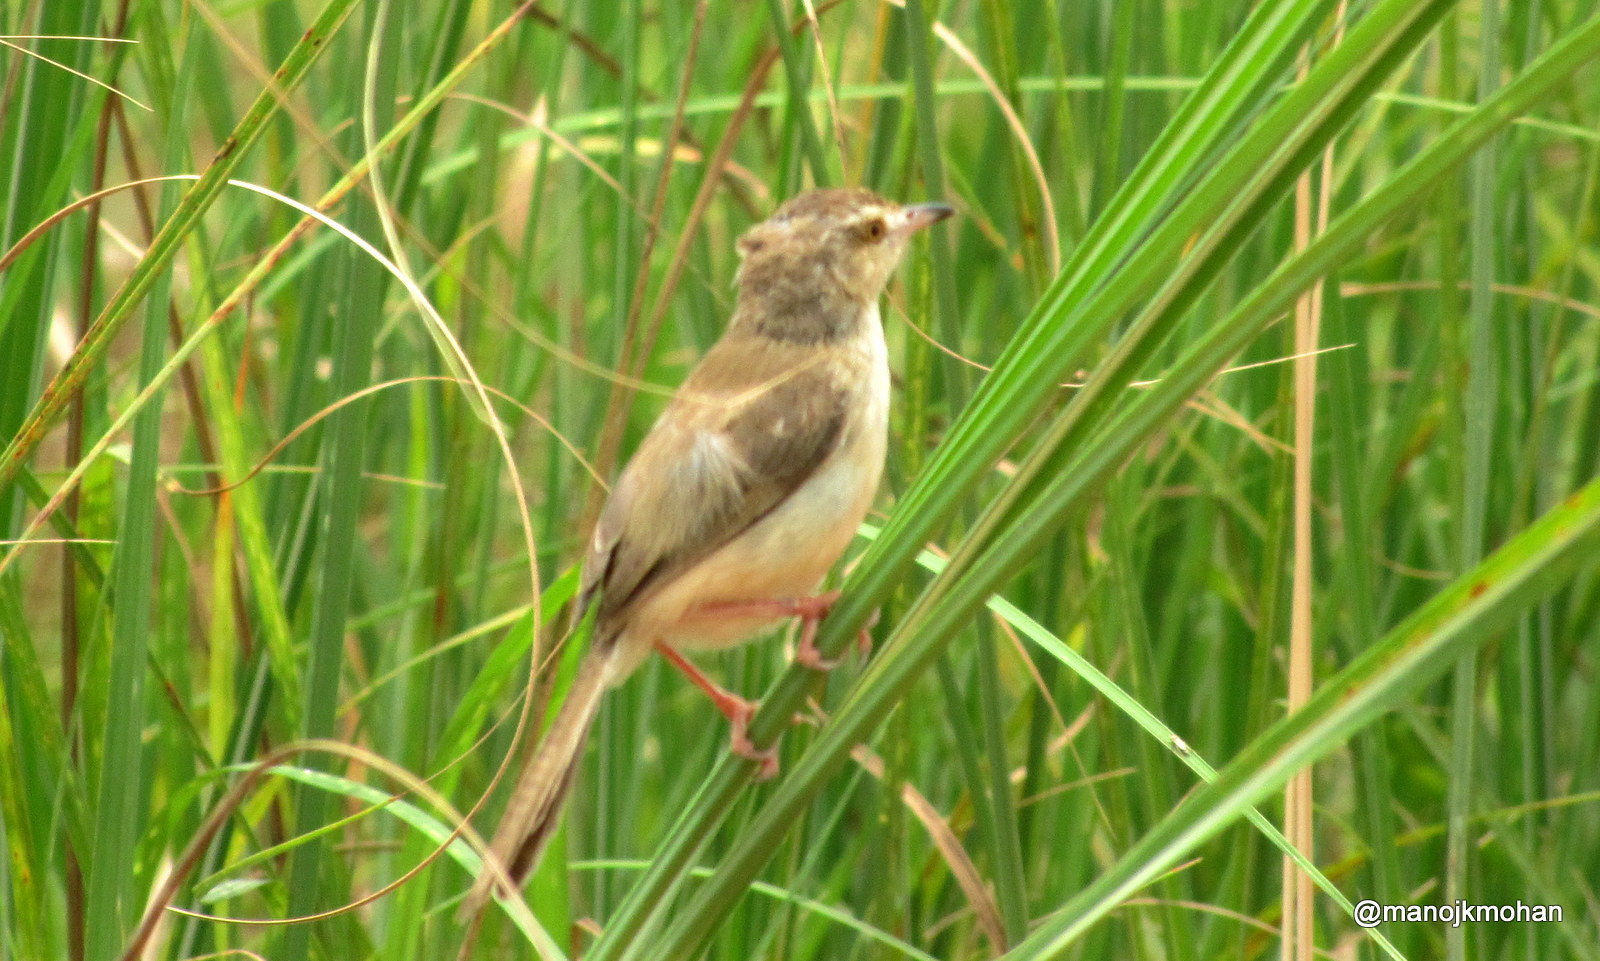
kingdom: Animalia
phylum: Chordata
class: Aves
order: Passeriformes
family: Cisticolidae
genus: Prinia
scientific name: Prinia inornata
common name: Plain prinia
